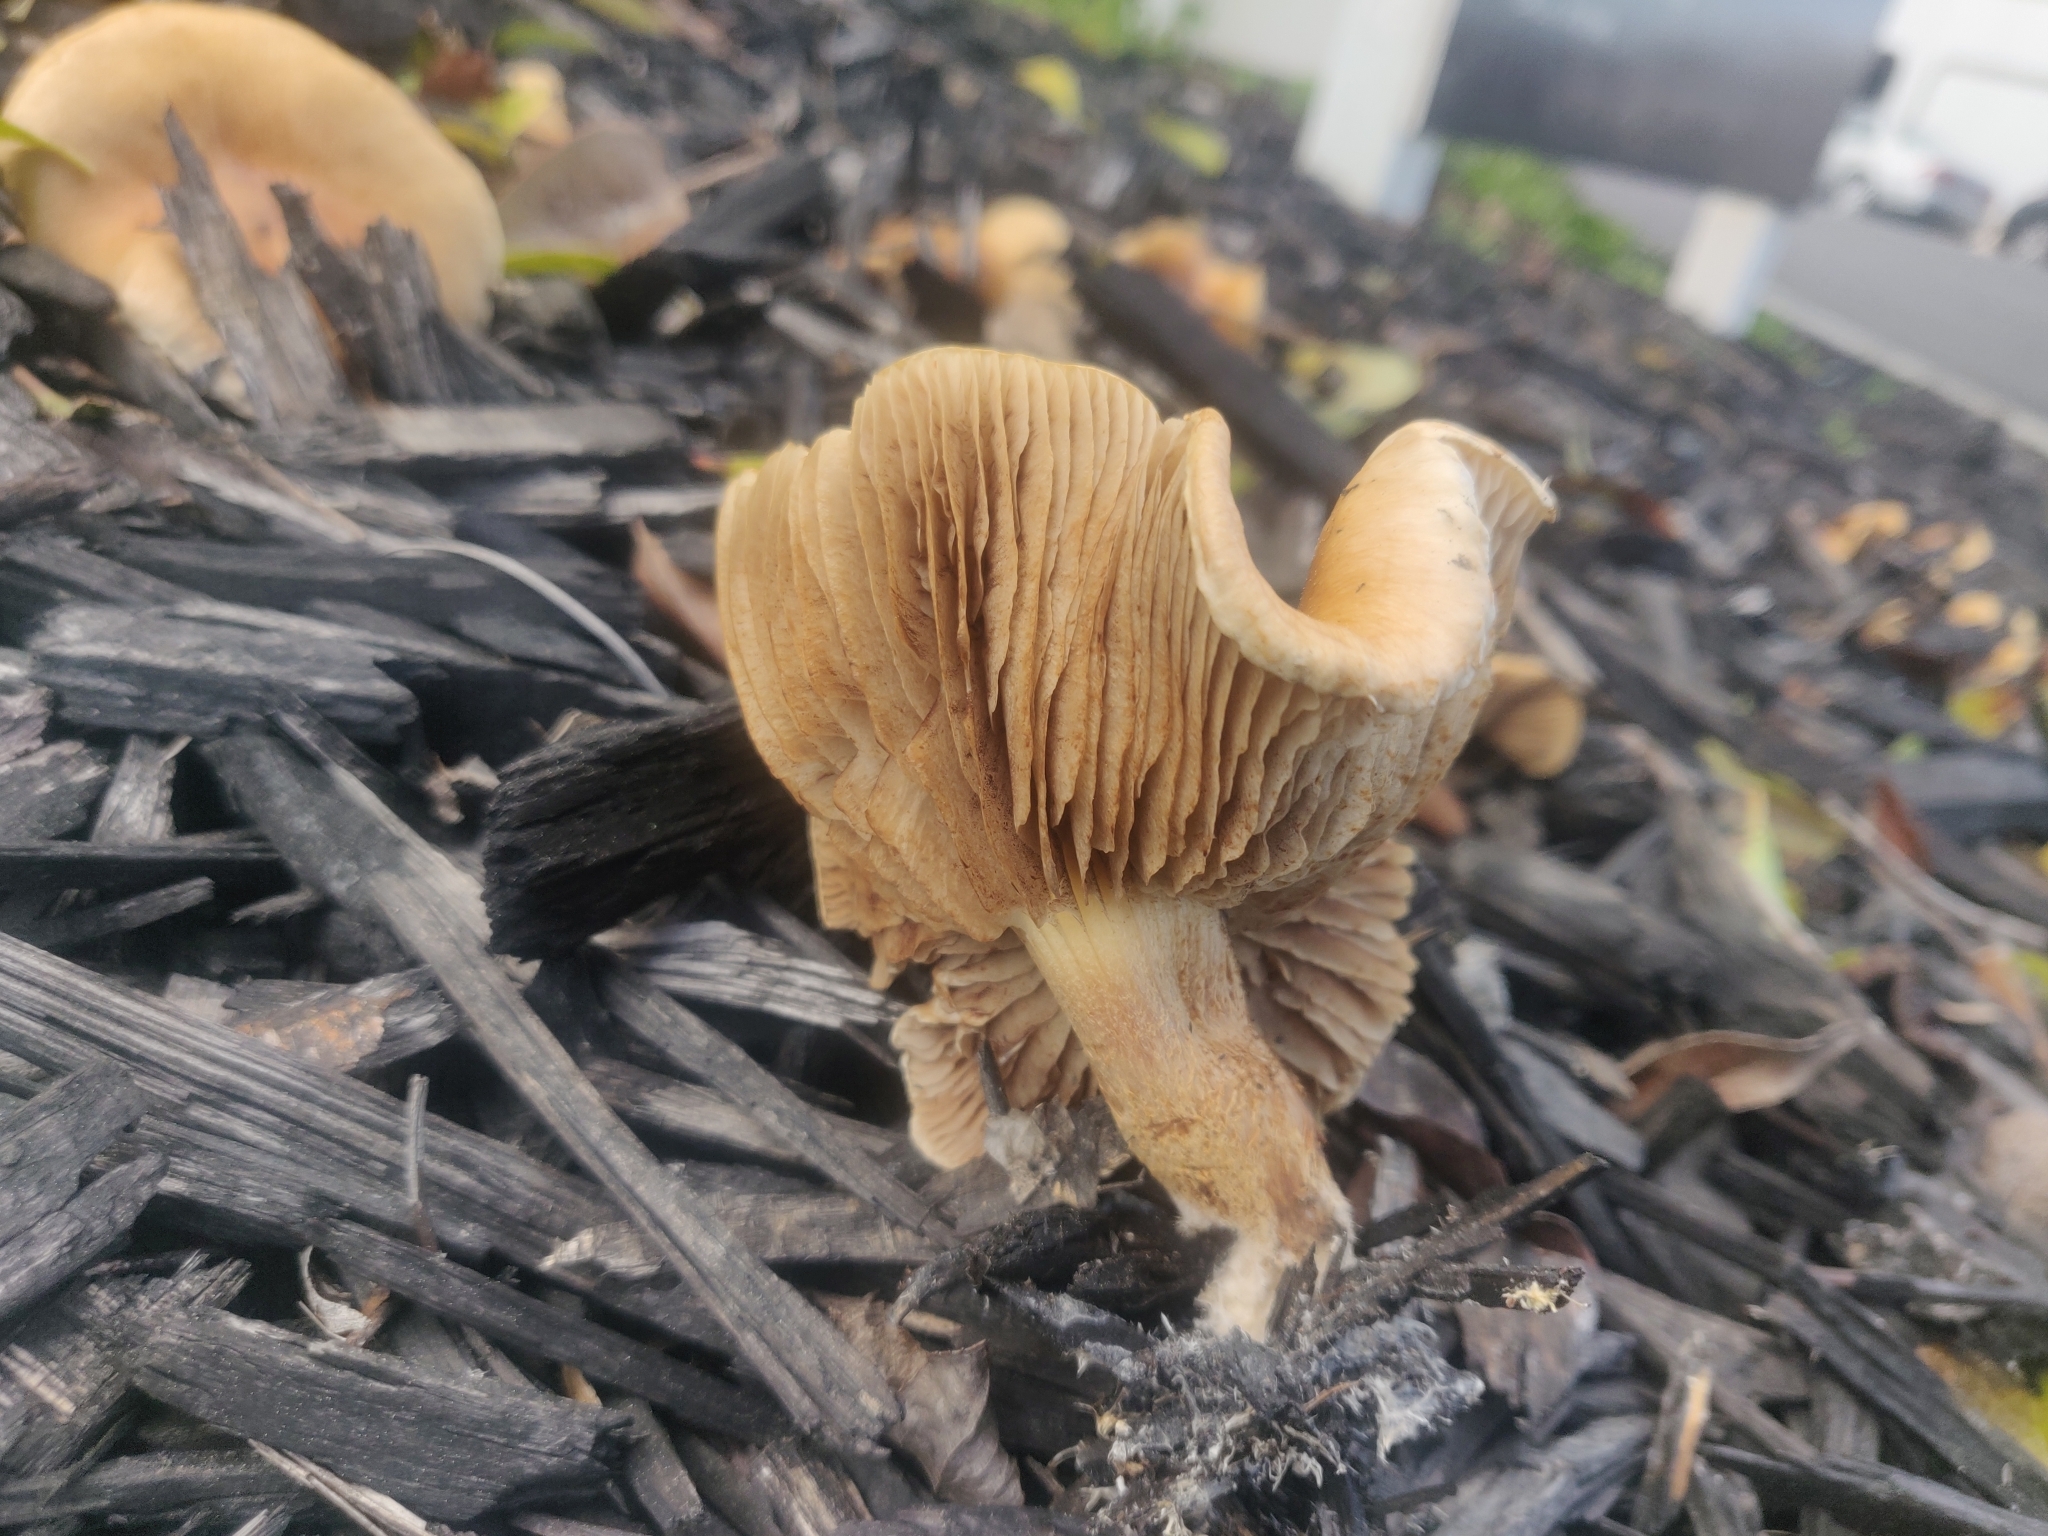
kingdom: Fungi
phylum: Basidiomycota
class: Agaricomycetes
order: Agaricales
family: Strophariaceae
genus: Agrocybe
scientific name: Agrocybe putaminum
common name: Mulch fieldcap
